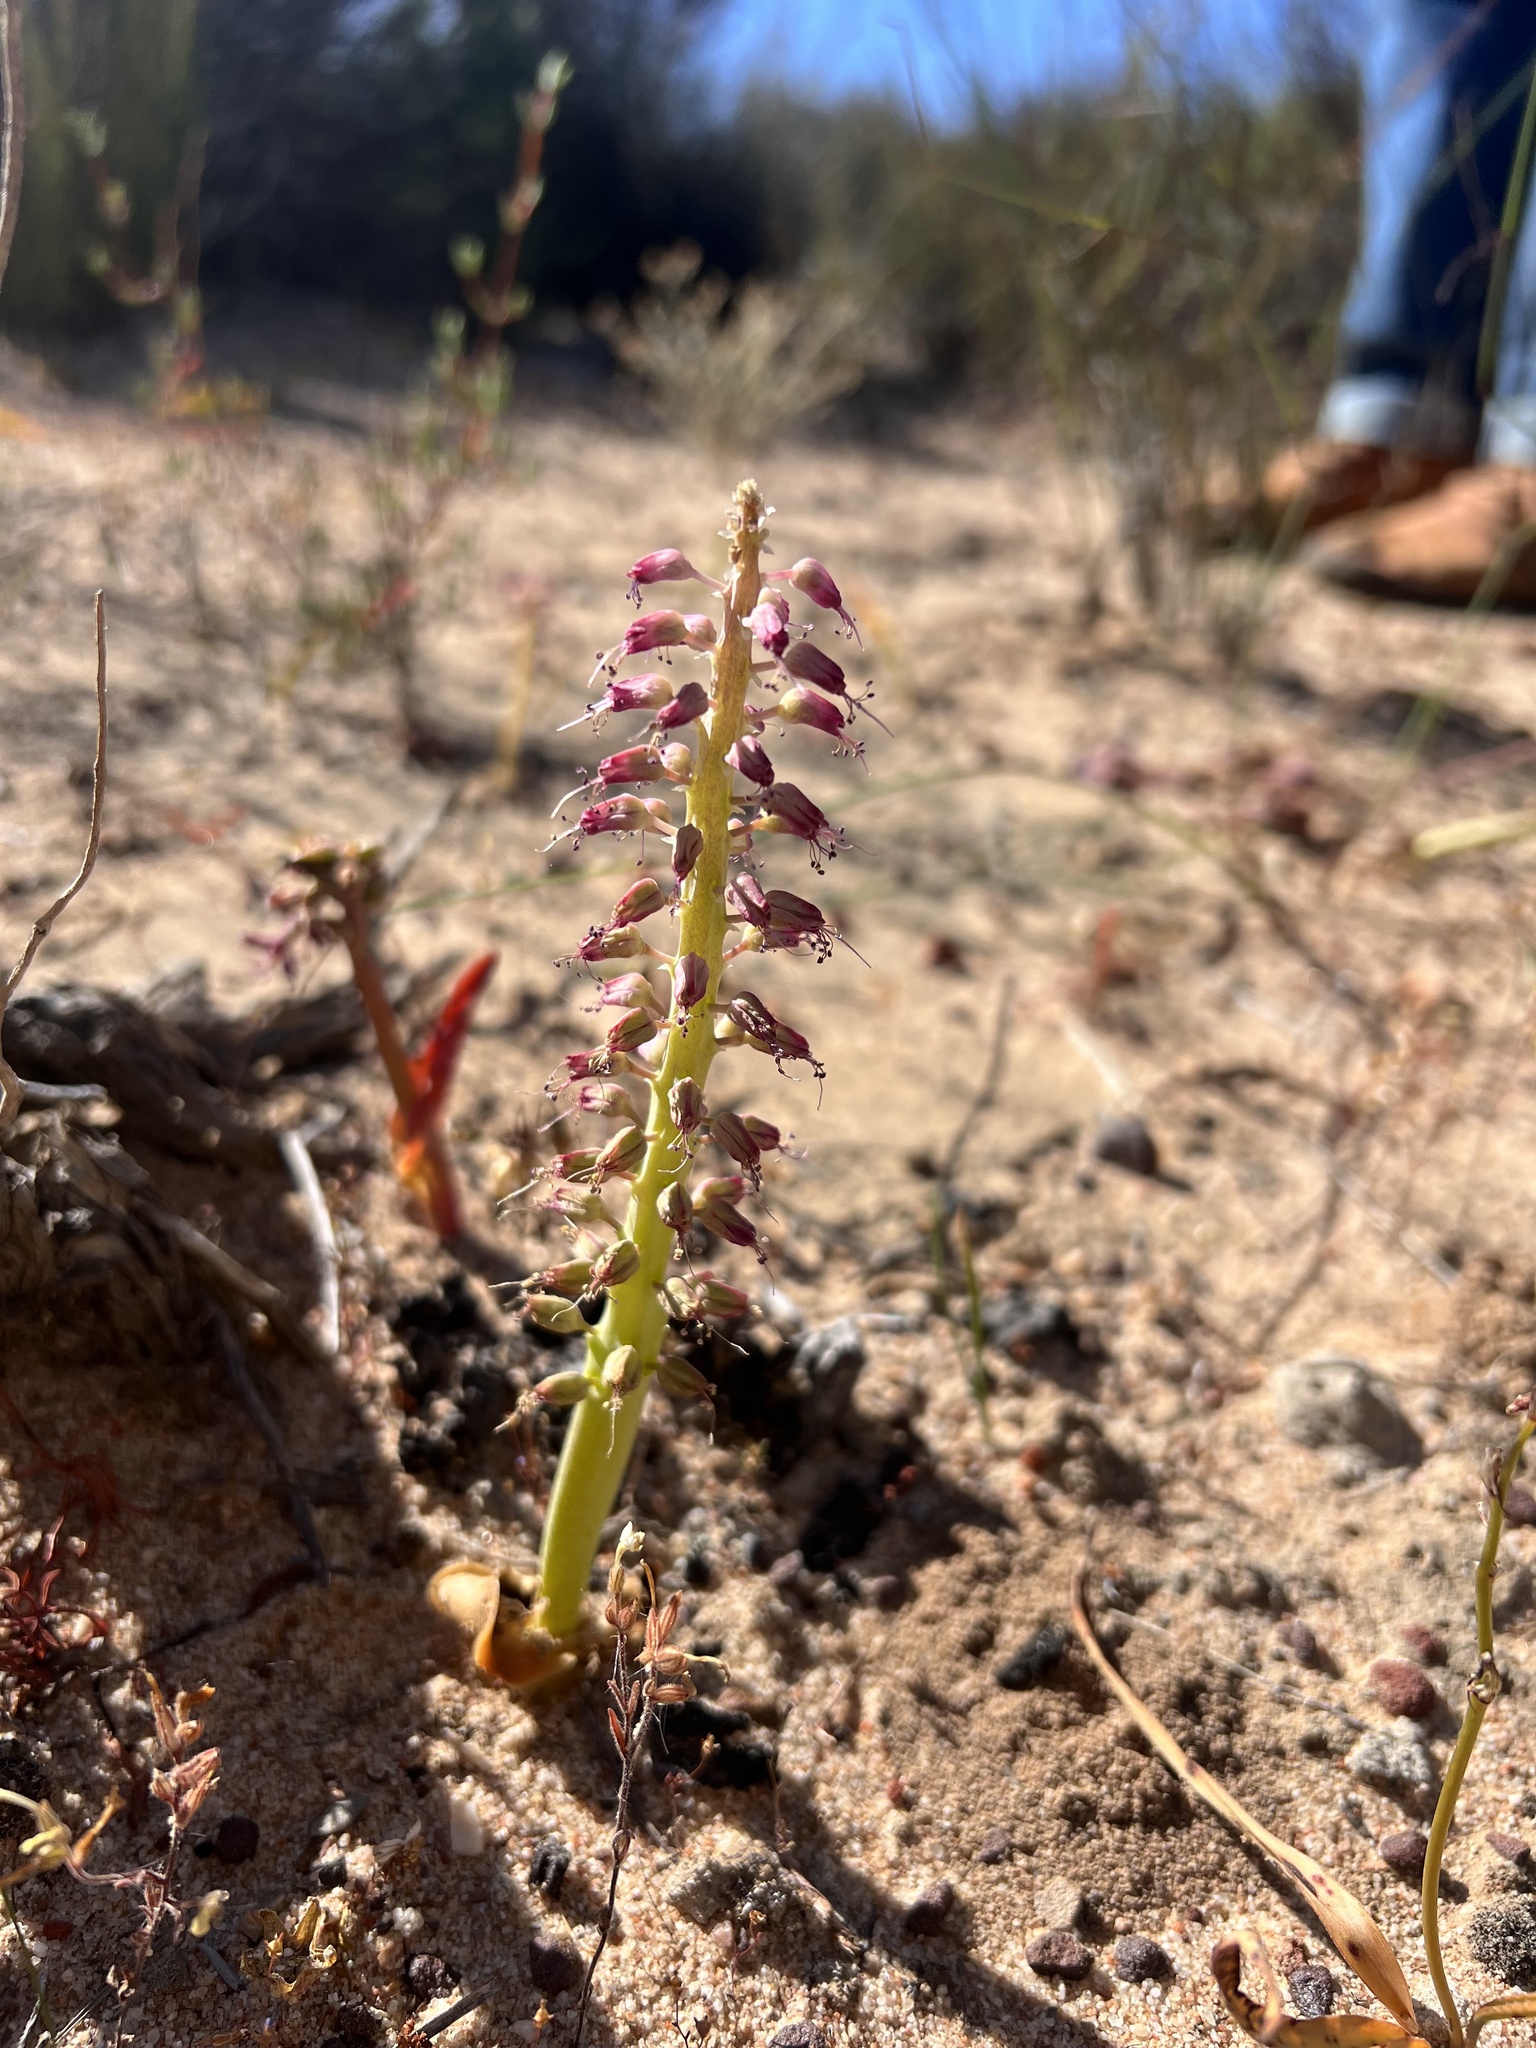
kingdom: Plantae
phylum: Tracheophyta
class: Liliopsida
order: Asparagales
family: Asparagaceae
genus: Lachenalia
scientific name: Lachenalia violacea
